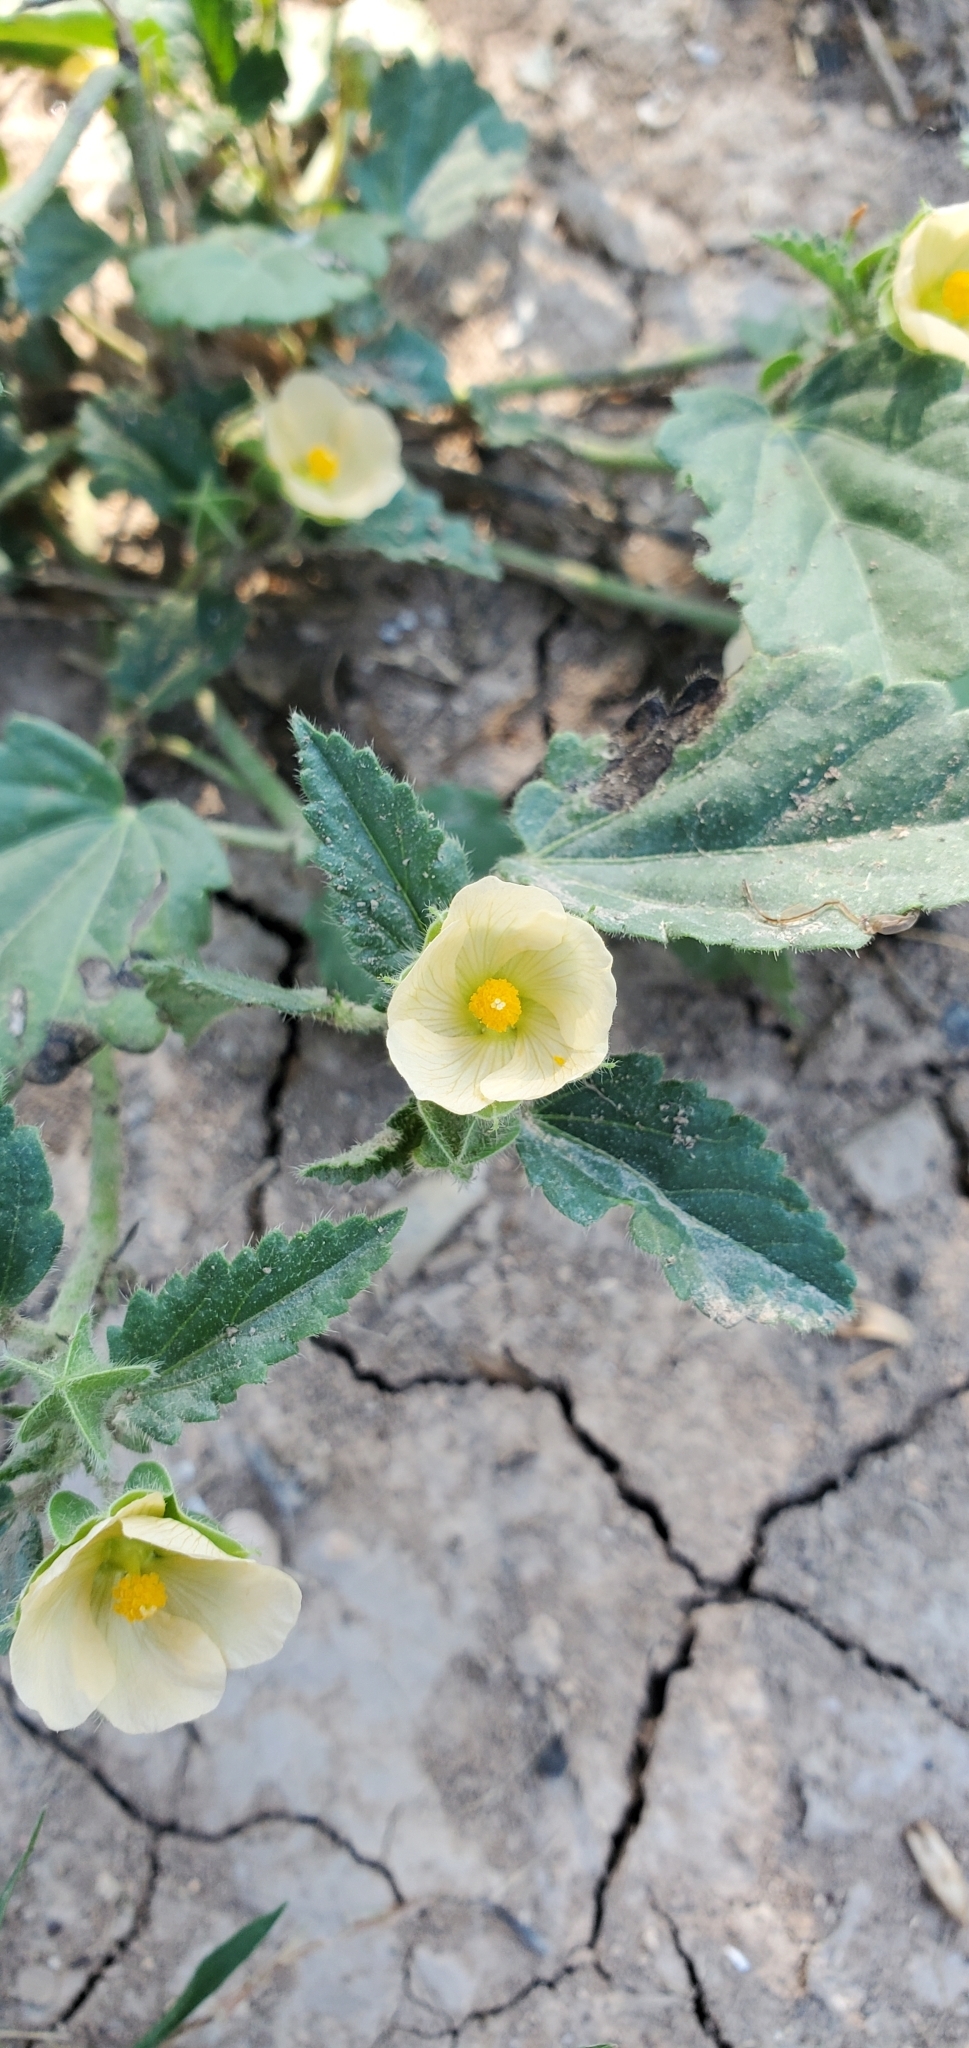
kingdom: Plantae
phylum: Tracheophyta
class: Magnoliopsida
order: Malvales
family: Malvaceae
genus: Rhynchosida
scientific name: Rhynchosida physocalyx
